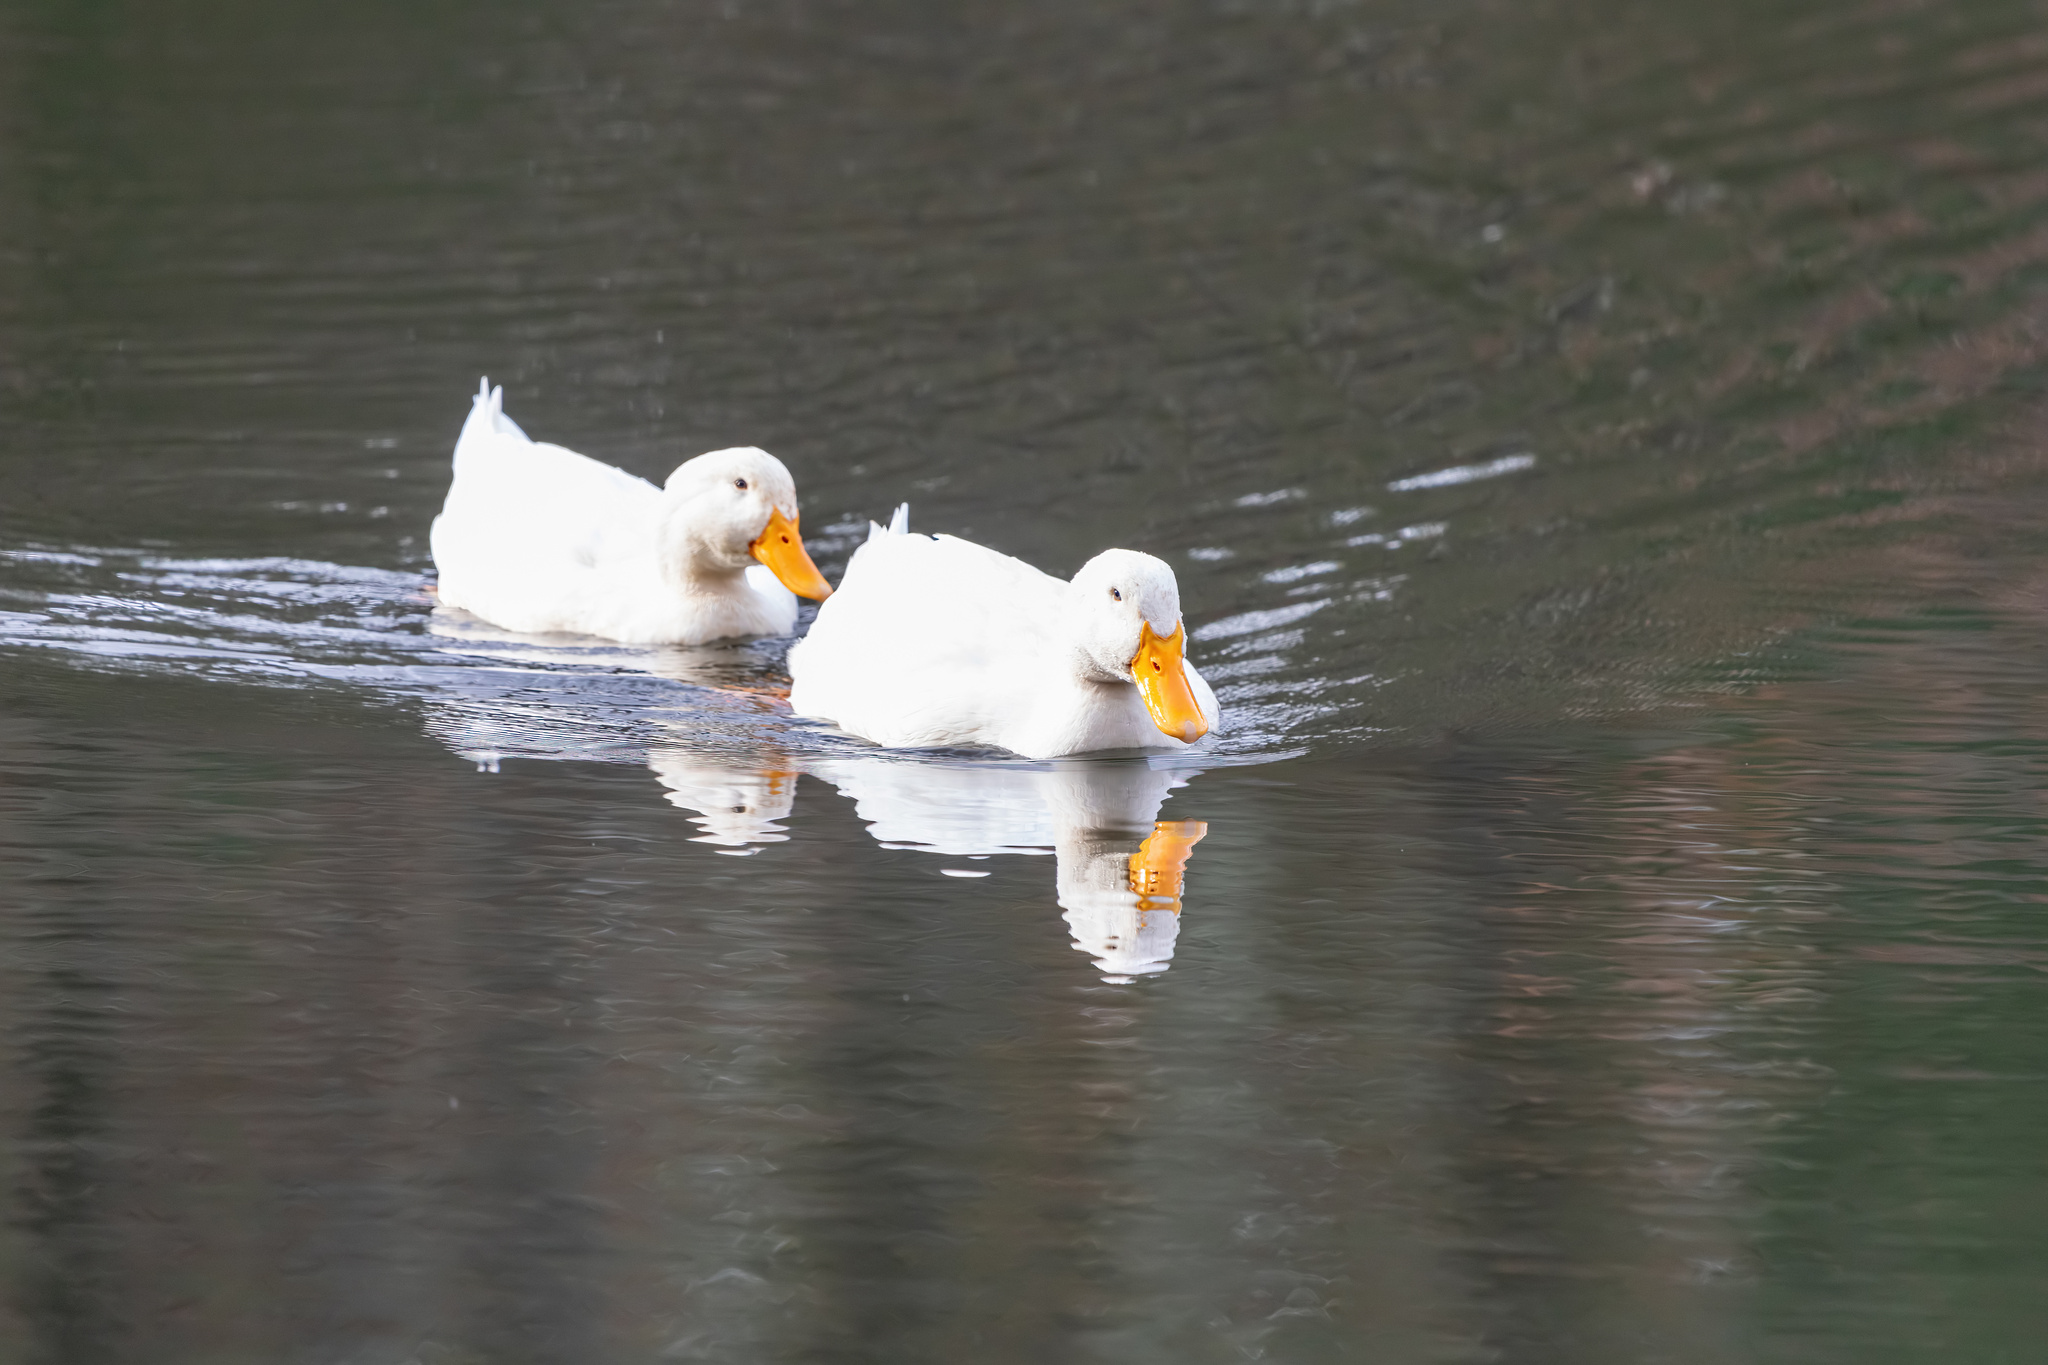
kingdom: Animalia
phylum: Chordata
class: Aves
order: Anseriformes
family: Anatidae
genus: Anas
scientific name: Anas platyrhynchos
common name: Mallard
